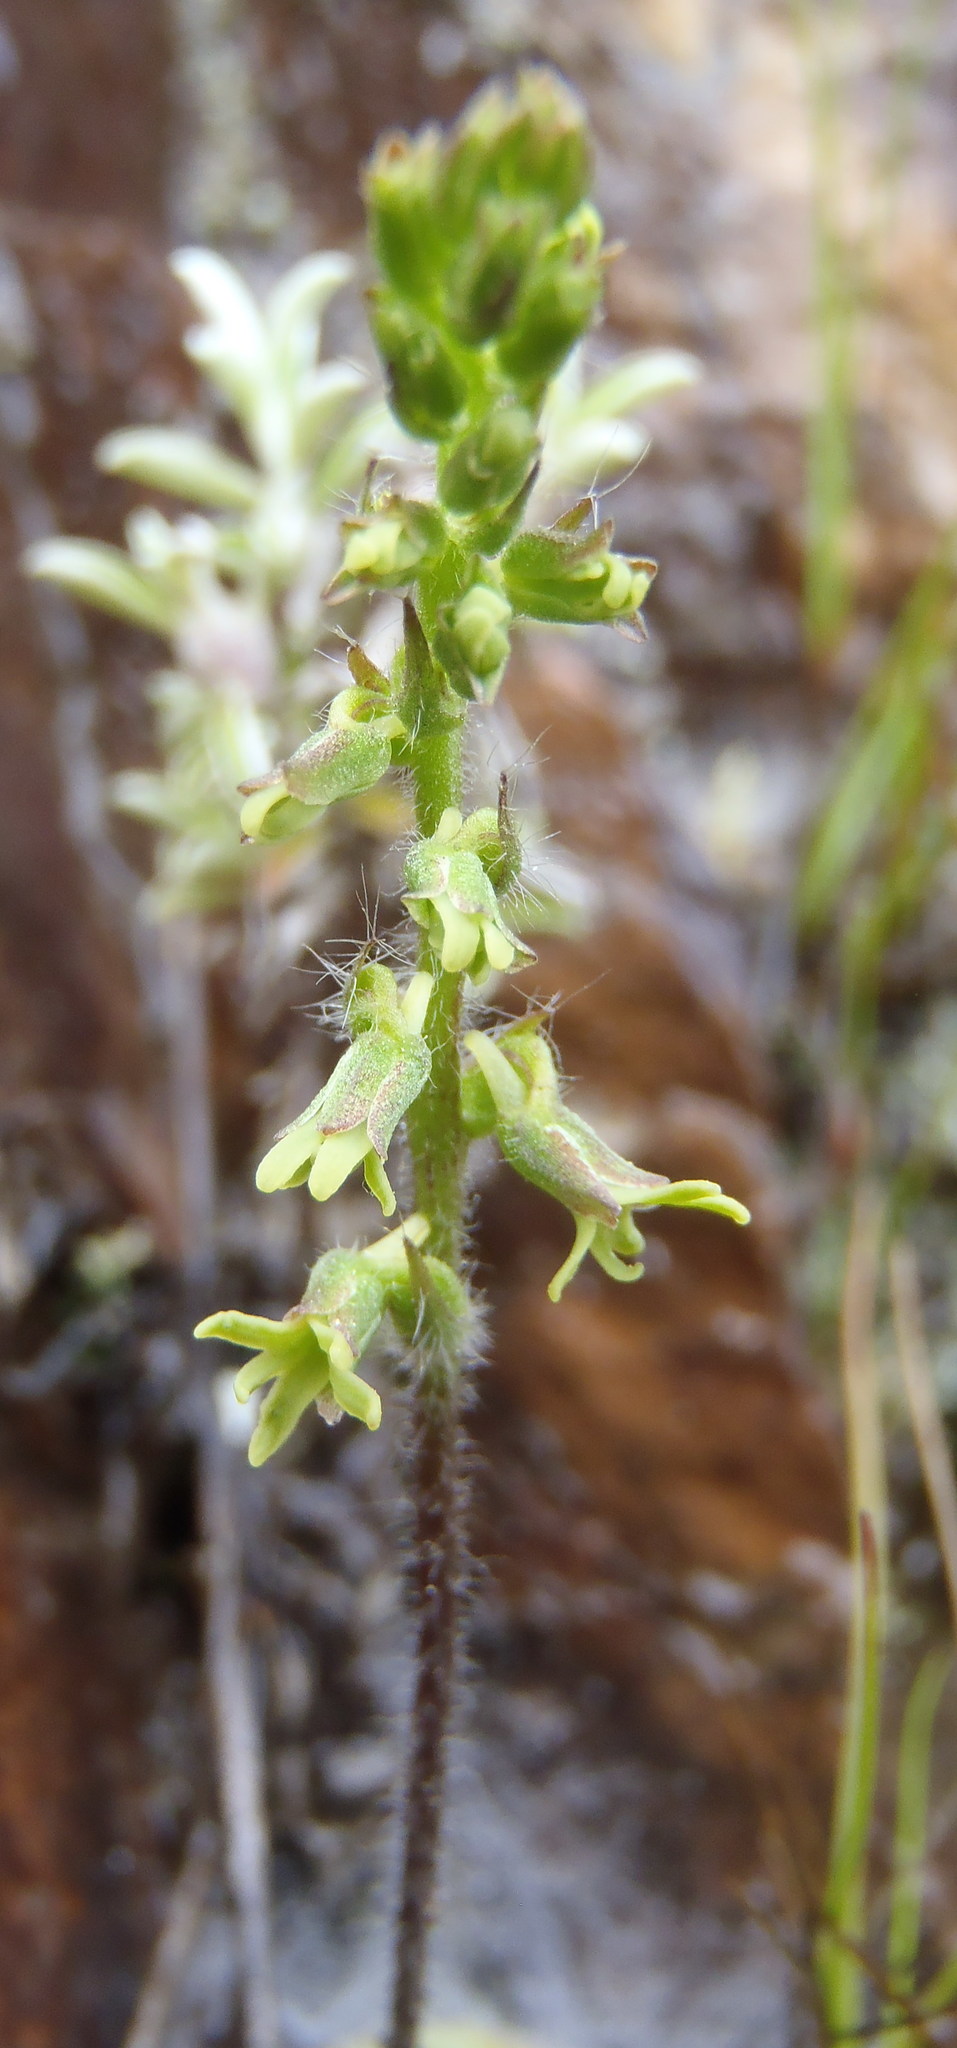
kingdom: Plantae
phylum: Tracheophyta
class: Liliopsida
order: Asparagales
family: Orchidaceae
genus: Holothrix
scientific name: Holothrix villosa
